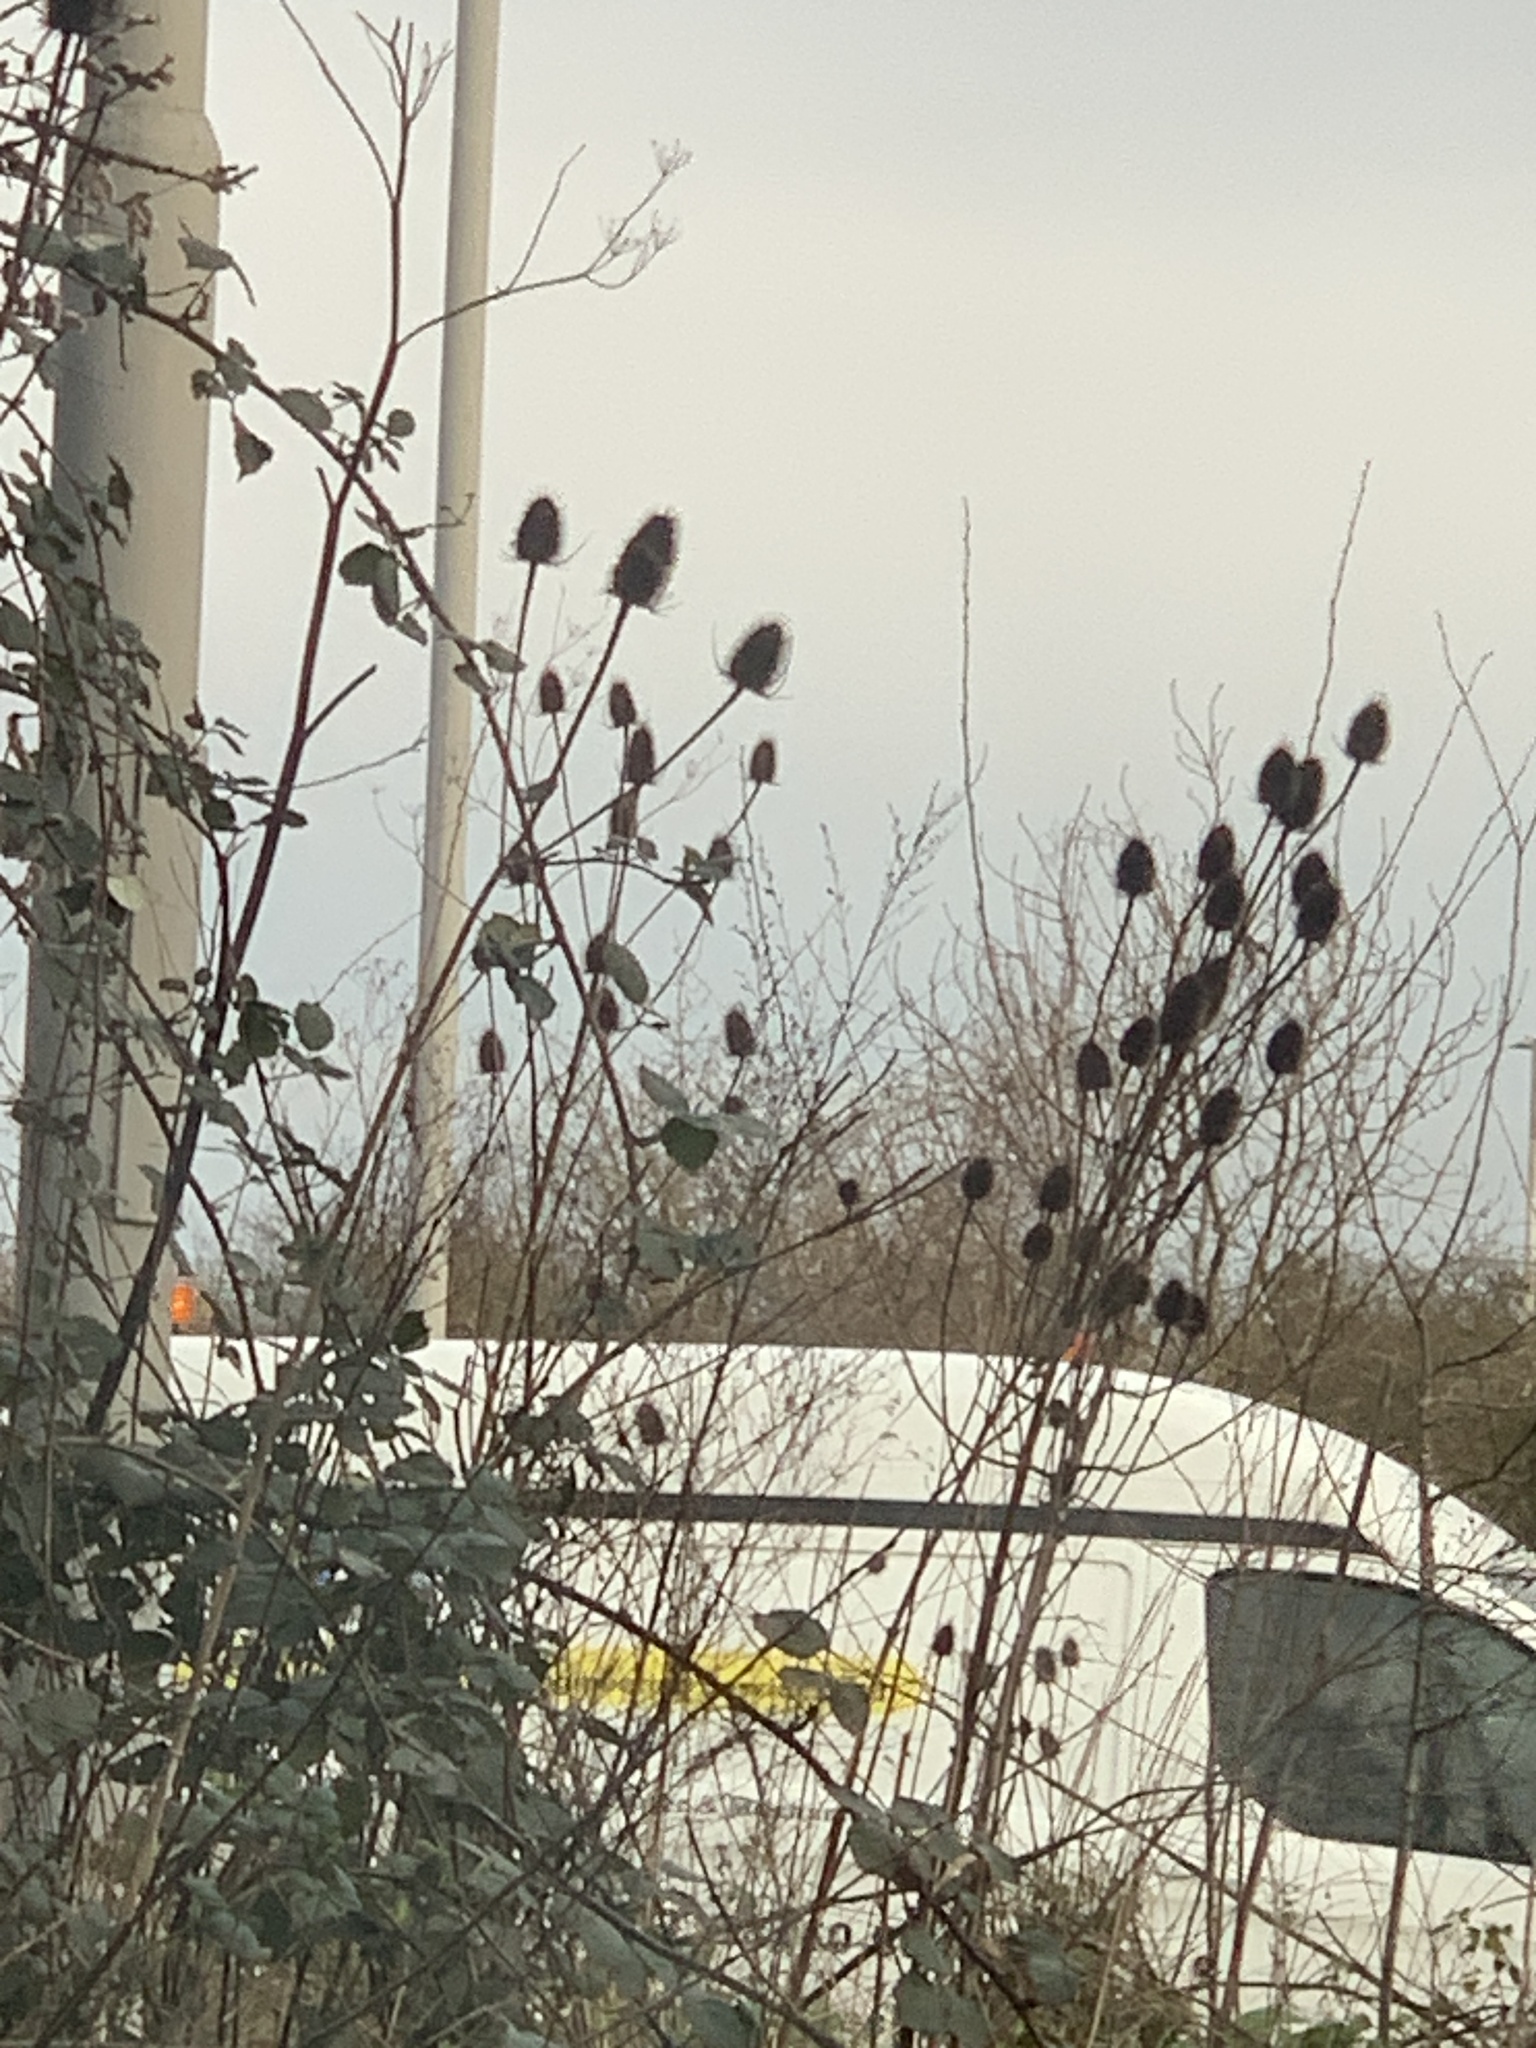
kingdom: Plantae
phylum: Tracheophyta
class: Magnoliopsida
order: Dipsacales
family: Caprifoliaceae
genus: Dipsacus
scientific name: Dipsacus fullonum
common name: Teasel
